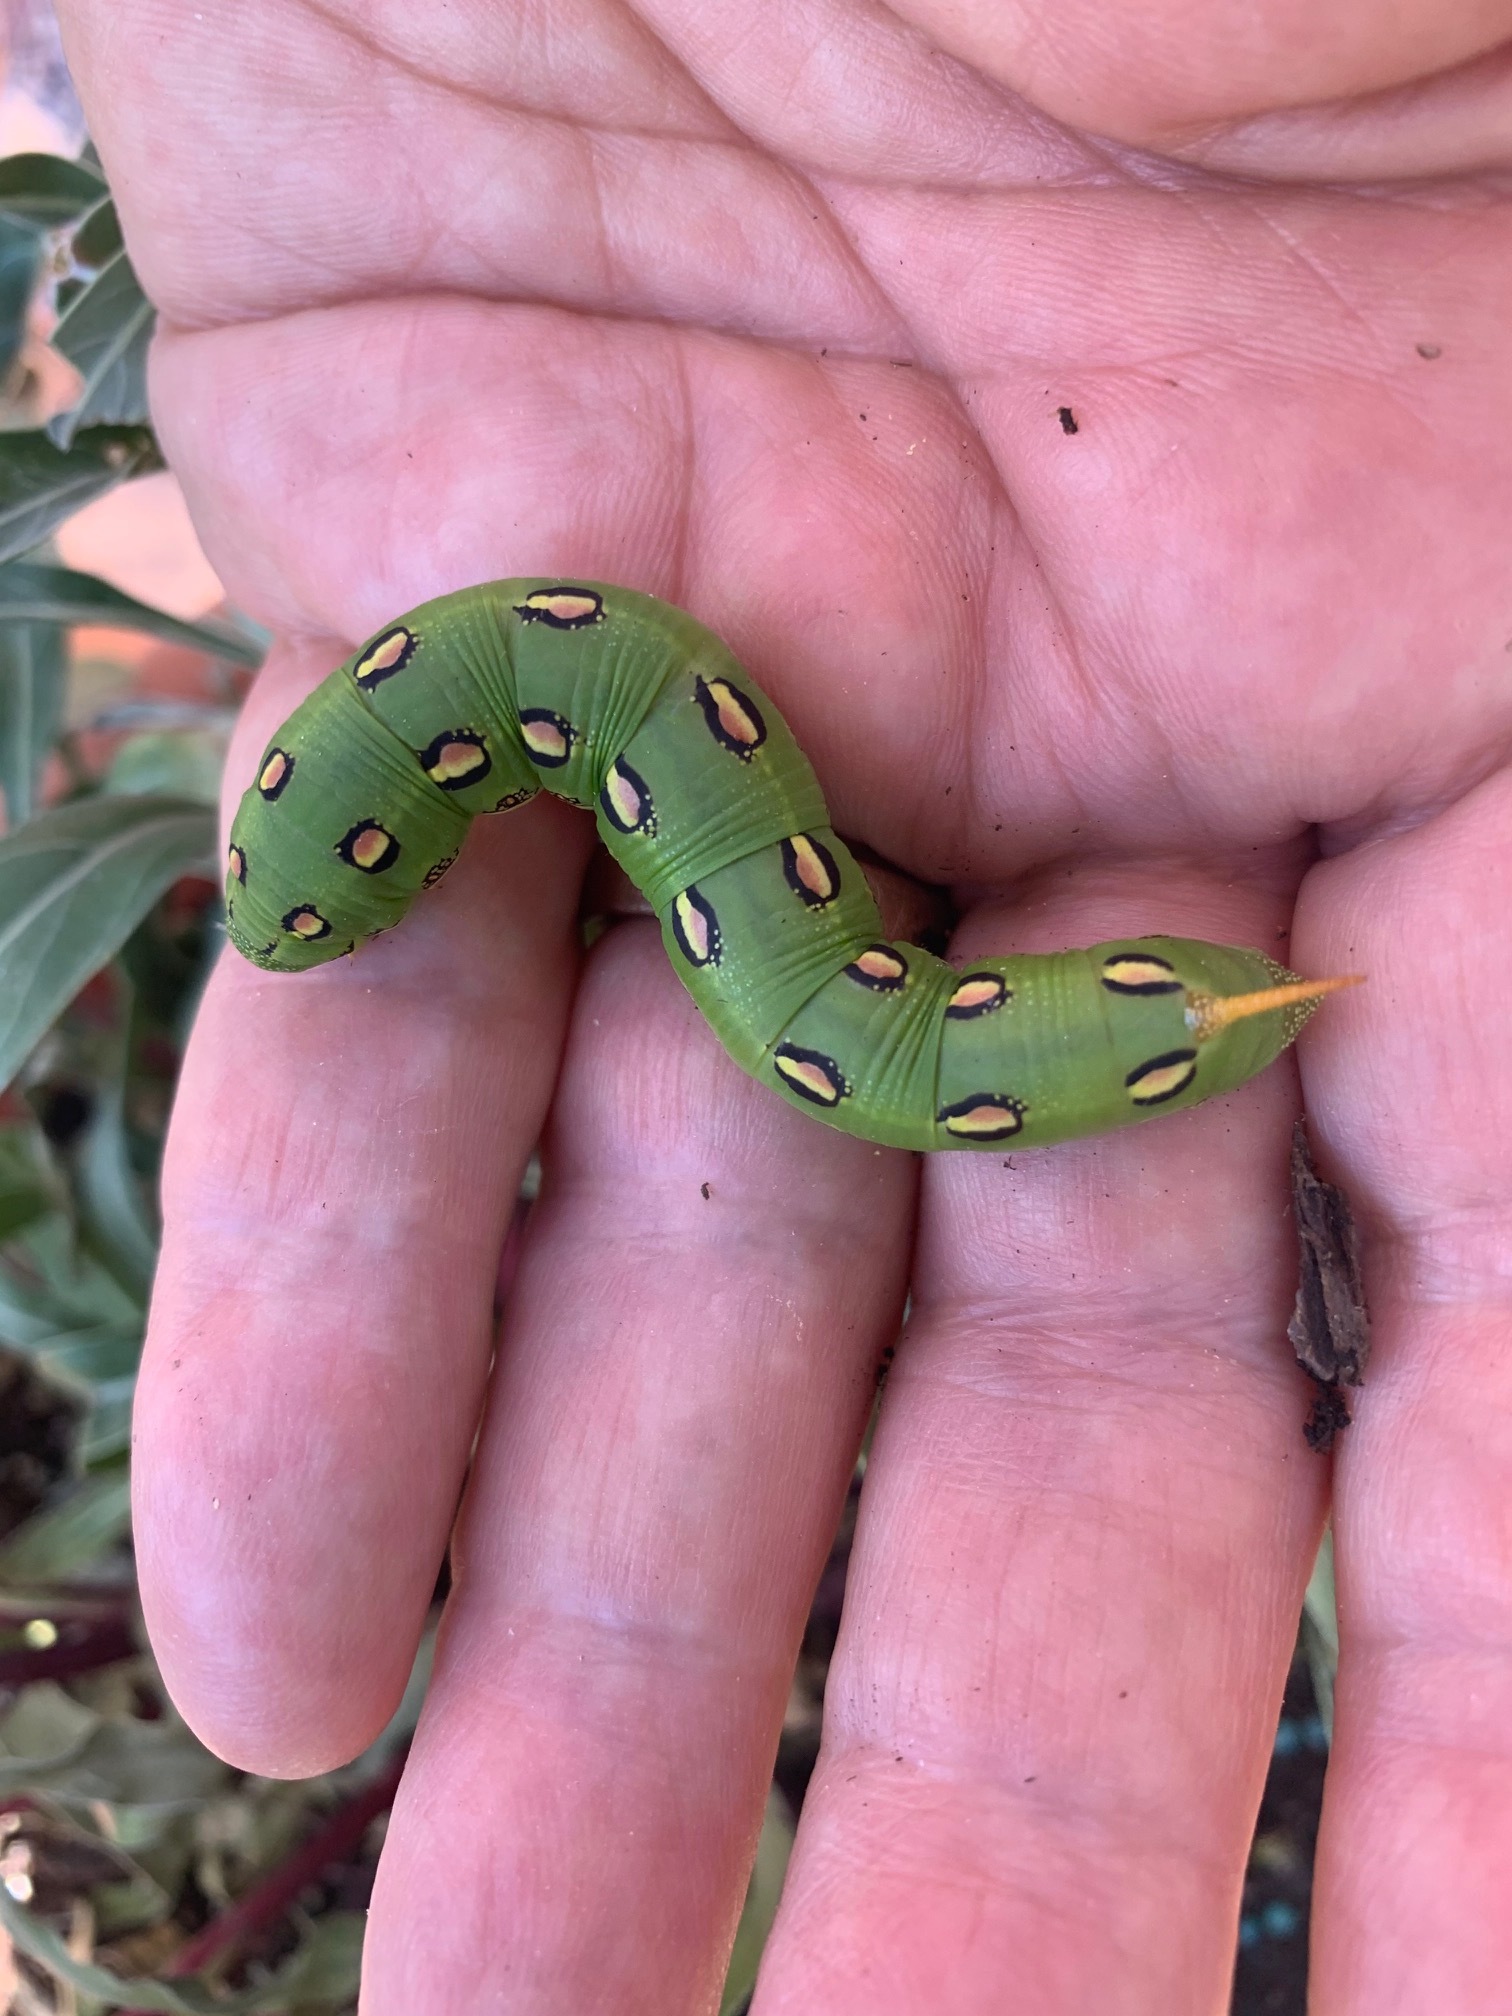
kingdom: Animalia
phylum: Arthropoda
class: Insecta
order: Lepidoptera
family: Sphingidae
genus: Hyles
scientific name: Hyles lineata
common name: White-lined sphinx
